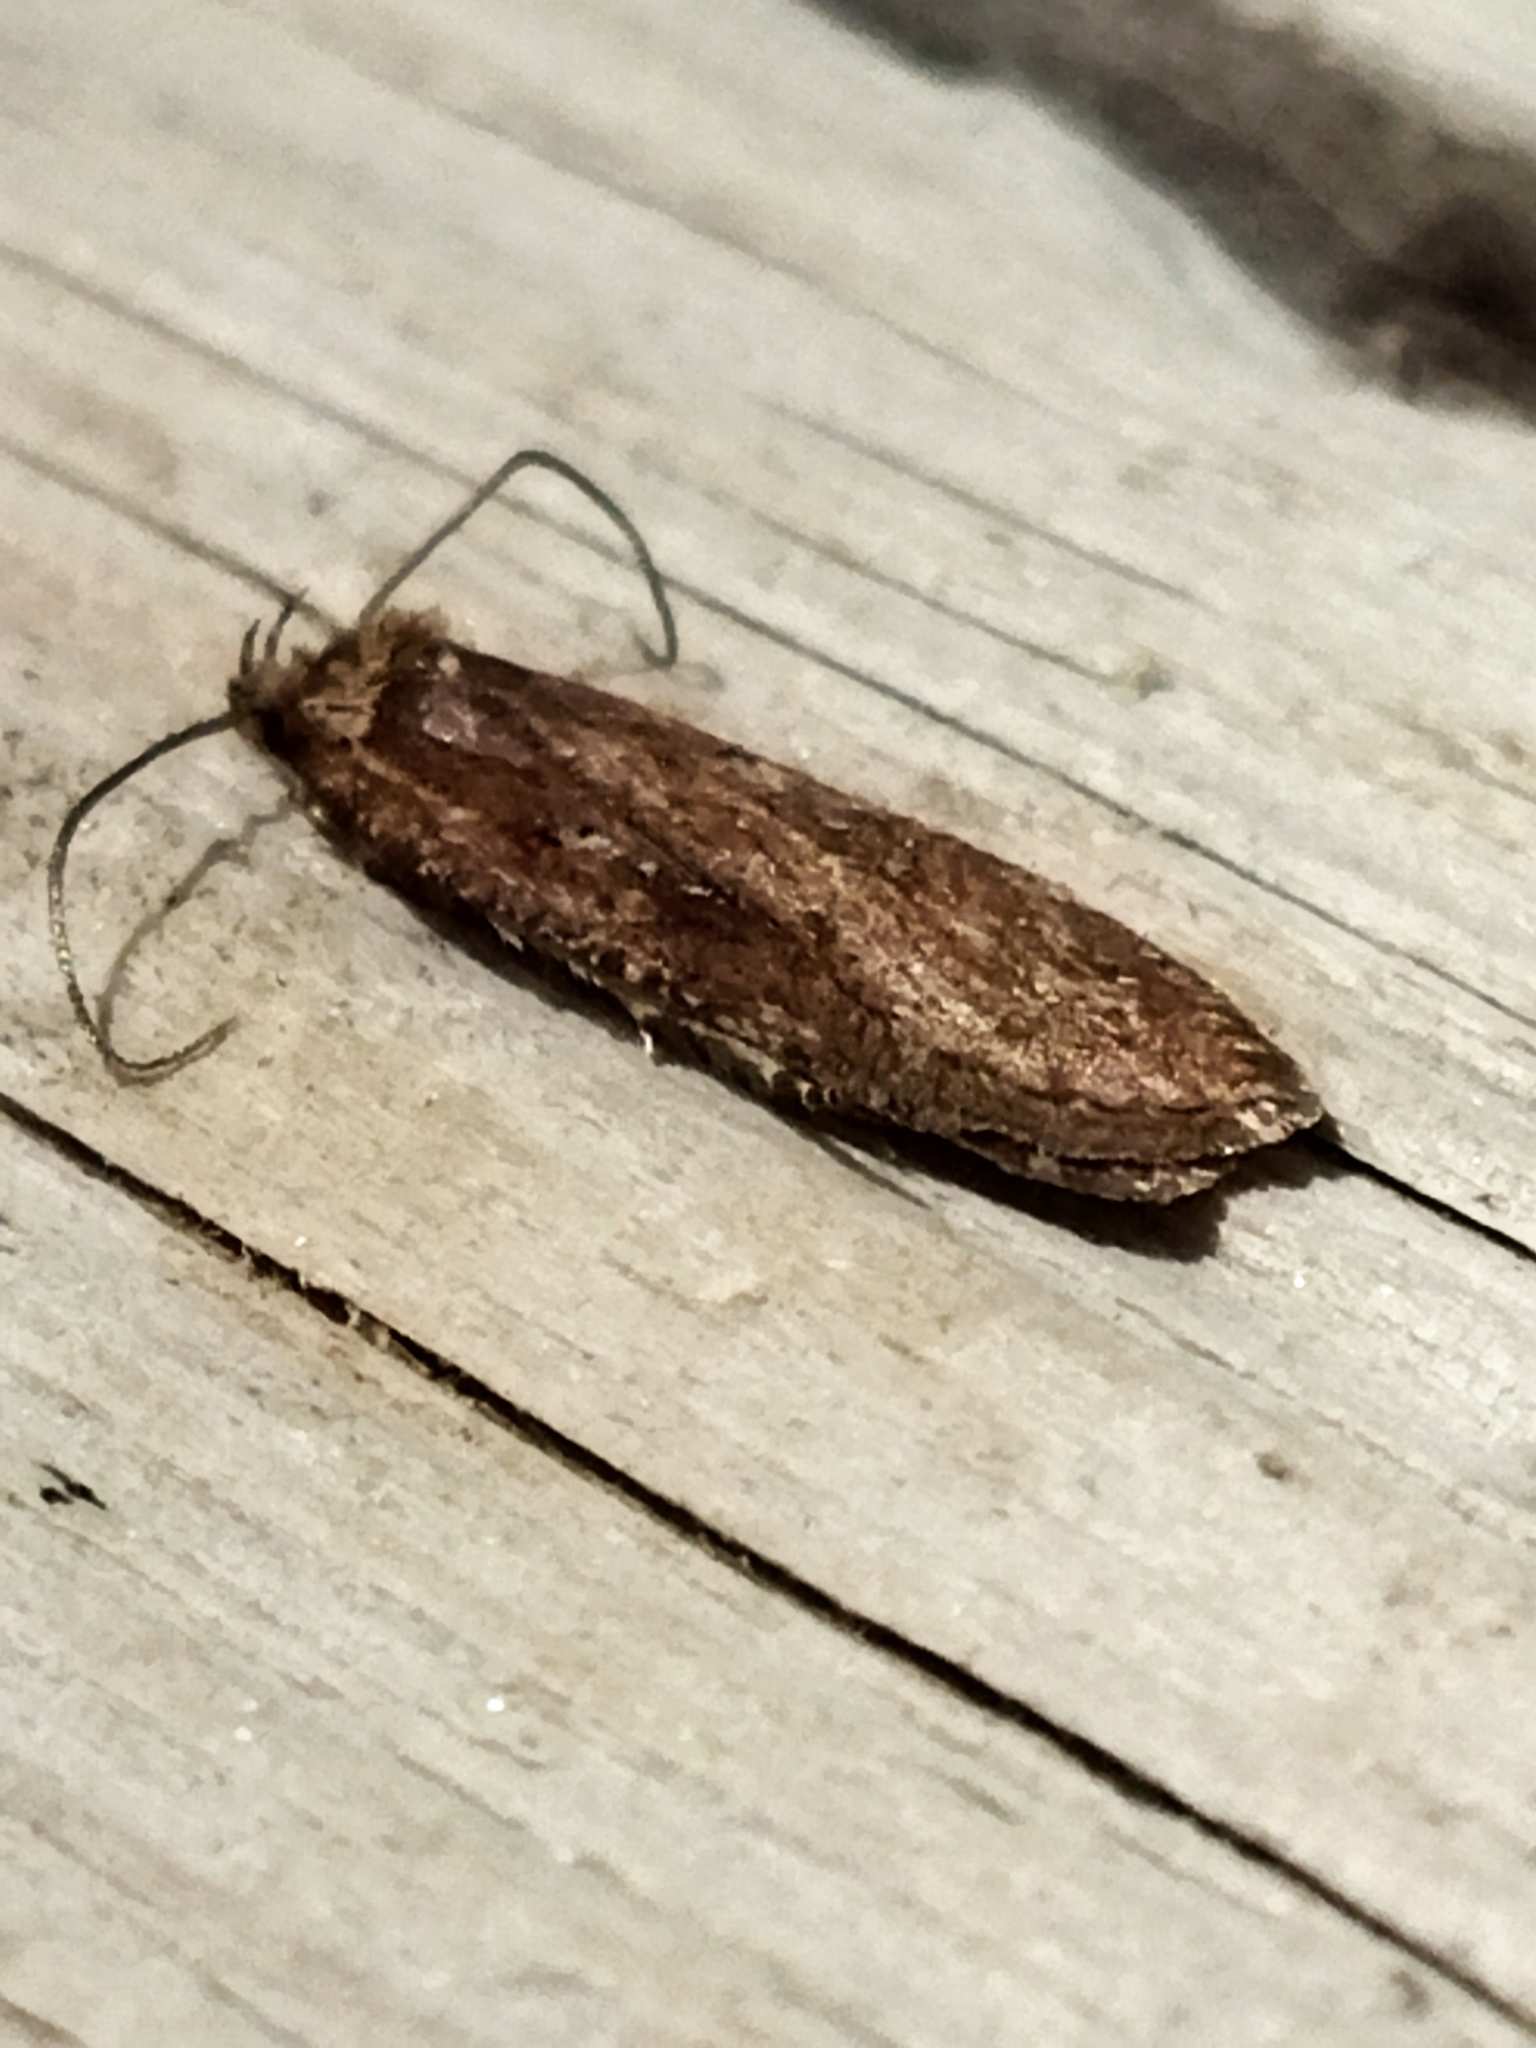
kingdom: Animalia
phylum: Arthropoda
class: Insecta
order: Lepidoptera
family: Depressariidae
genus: Agonopterix
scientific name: Agonopterix
